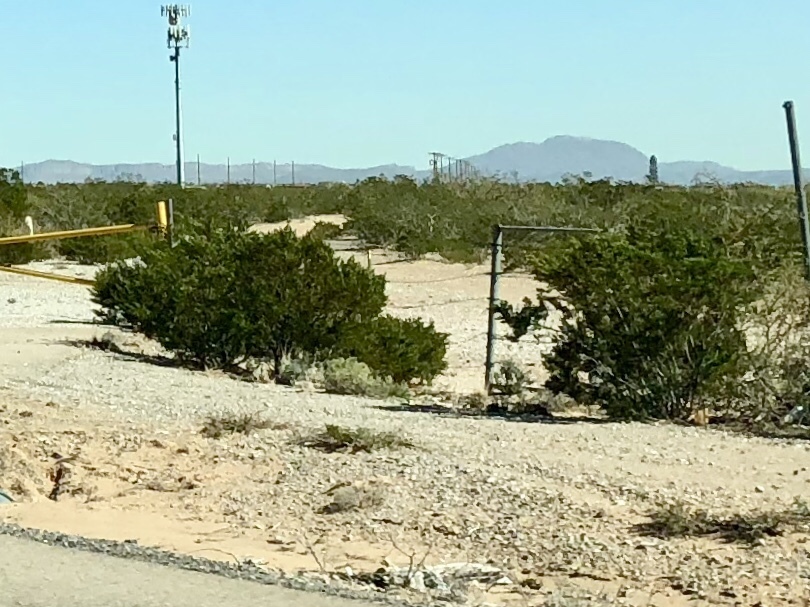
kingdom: Plantae
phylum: Tracheophyta
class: Magnoliopsida
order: Zygophyllales
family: Zygophyllaceae
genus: Larrea
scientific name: Larrea tridentata
